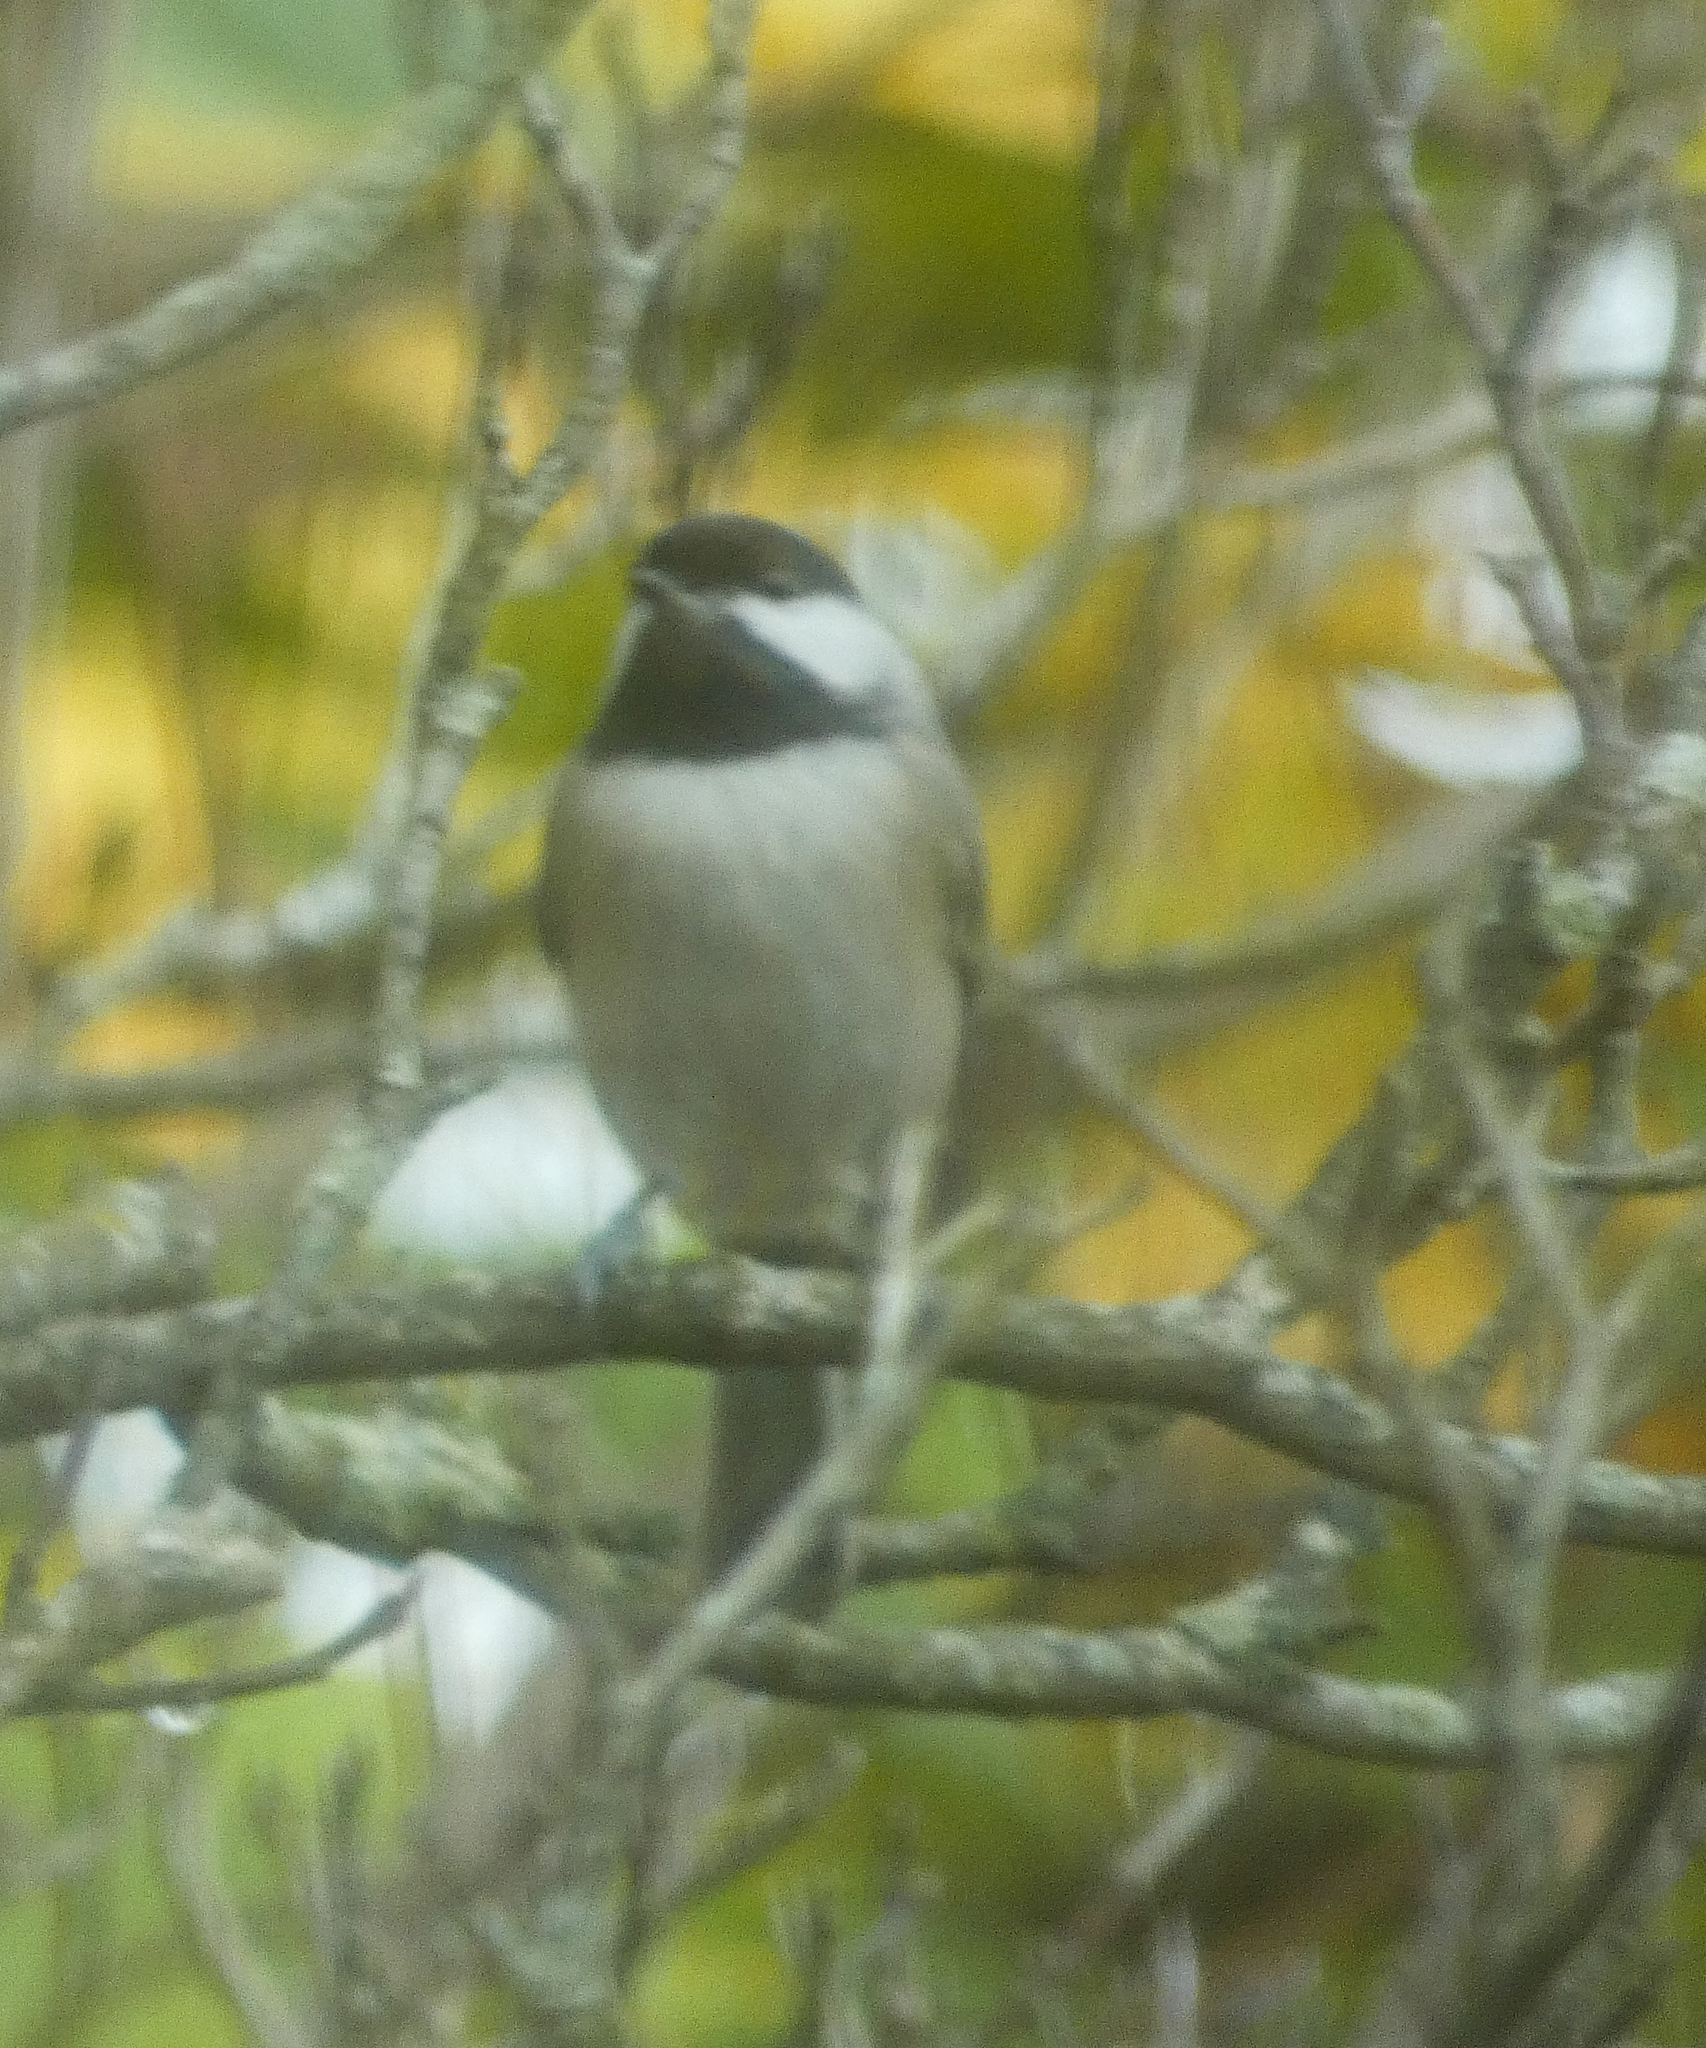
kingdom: Animalia
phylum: Chordata
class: Aves
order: Passeriformes
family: Paridae
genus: Poecile
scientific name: Poecile carolinensis
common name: Carolina chickadee
